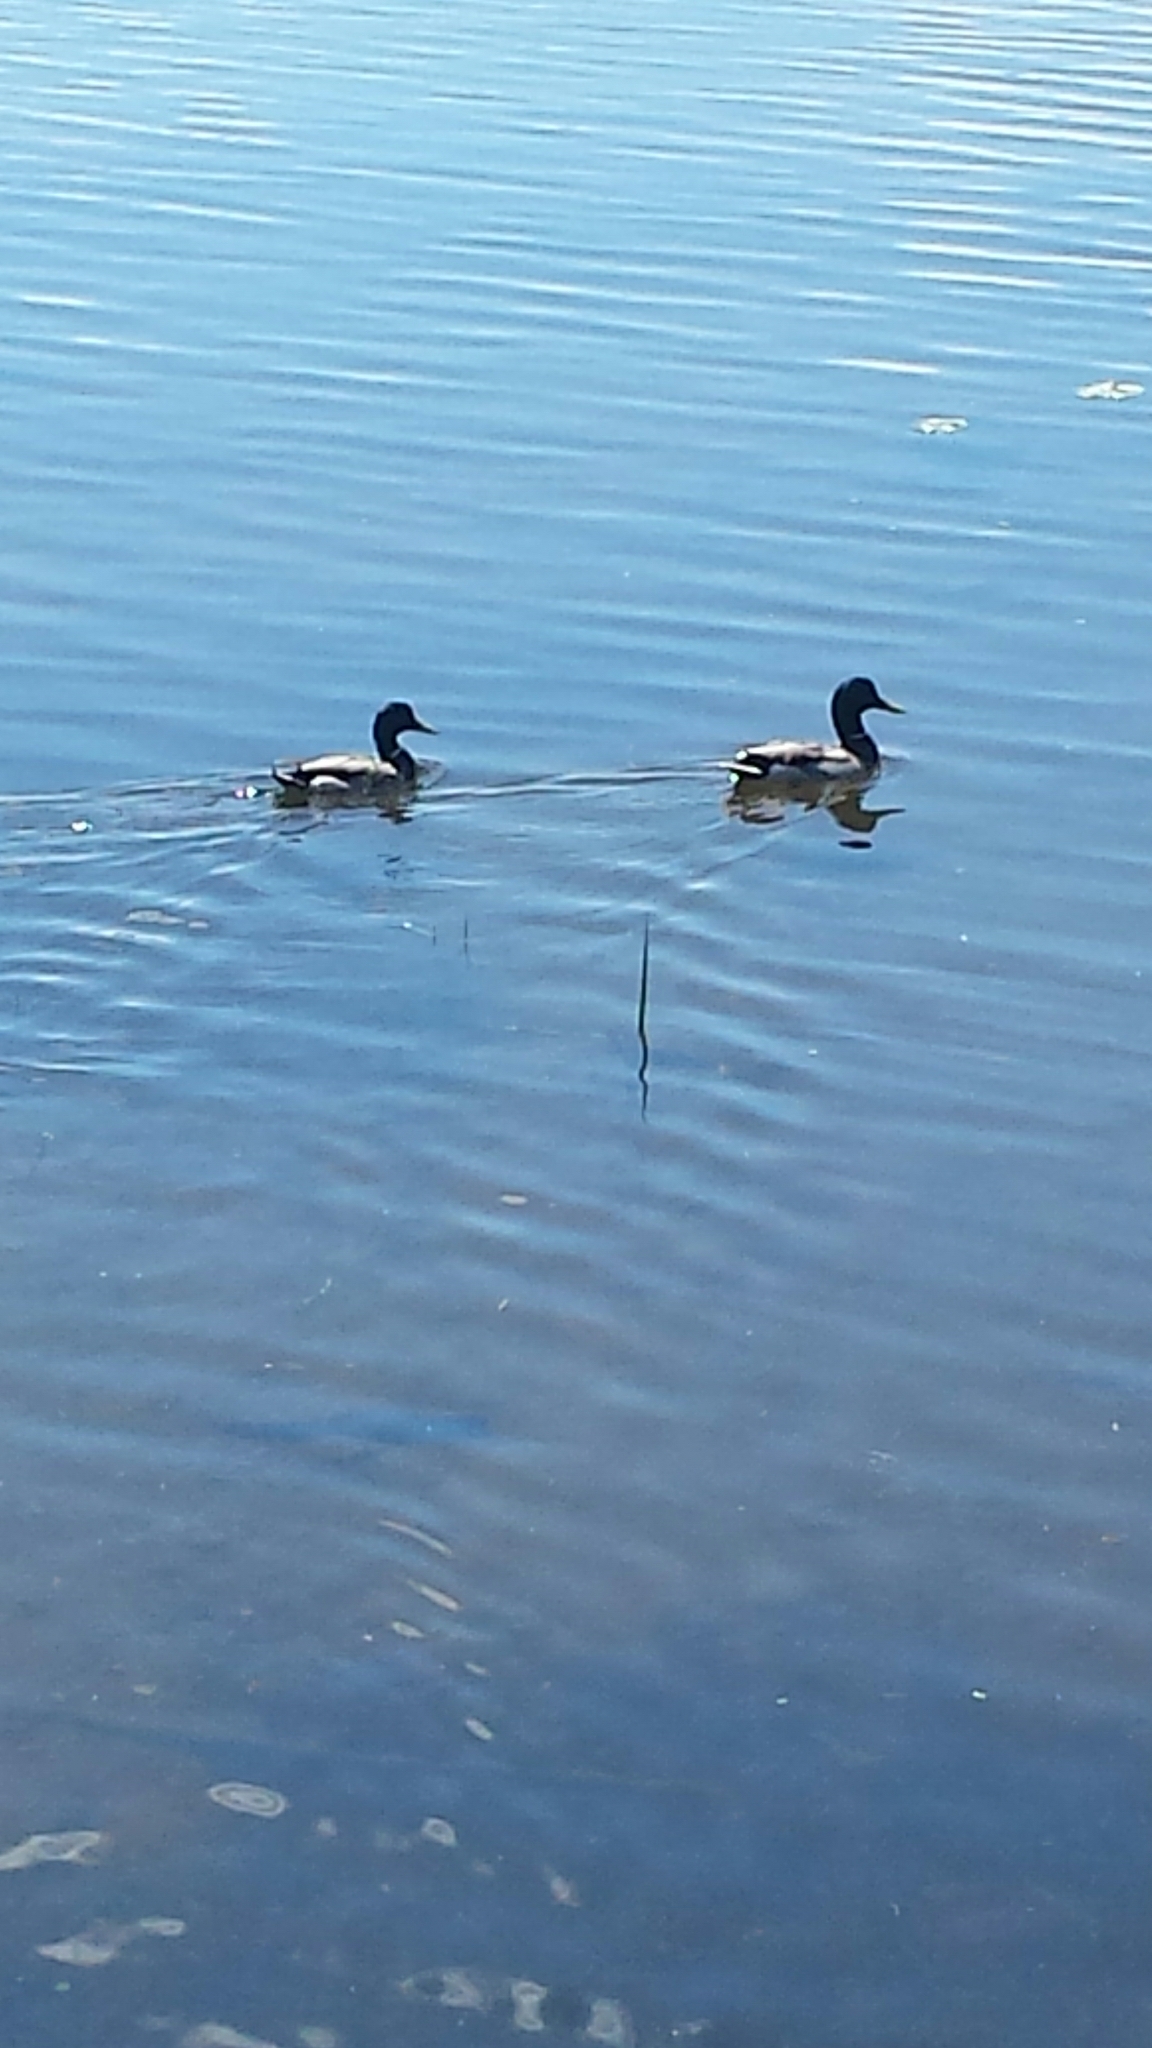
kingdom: Animalia
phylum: Chordata
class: Aves
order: Anseriformes
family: Anatidae
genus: Anas
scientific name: Anas platyrhynchos
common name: Mallard
